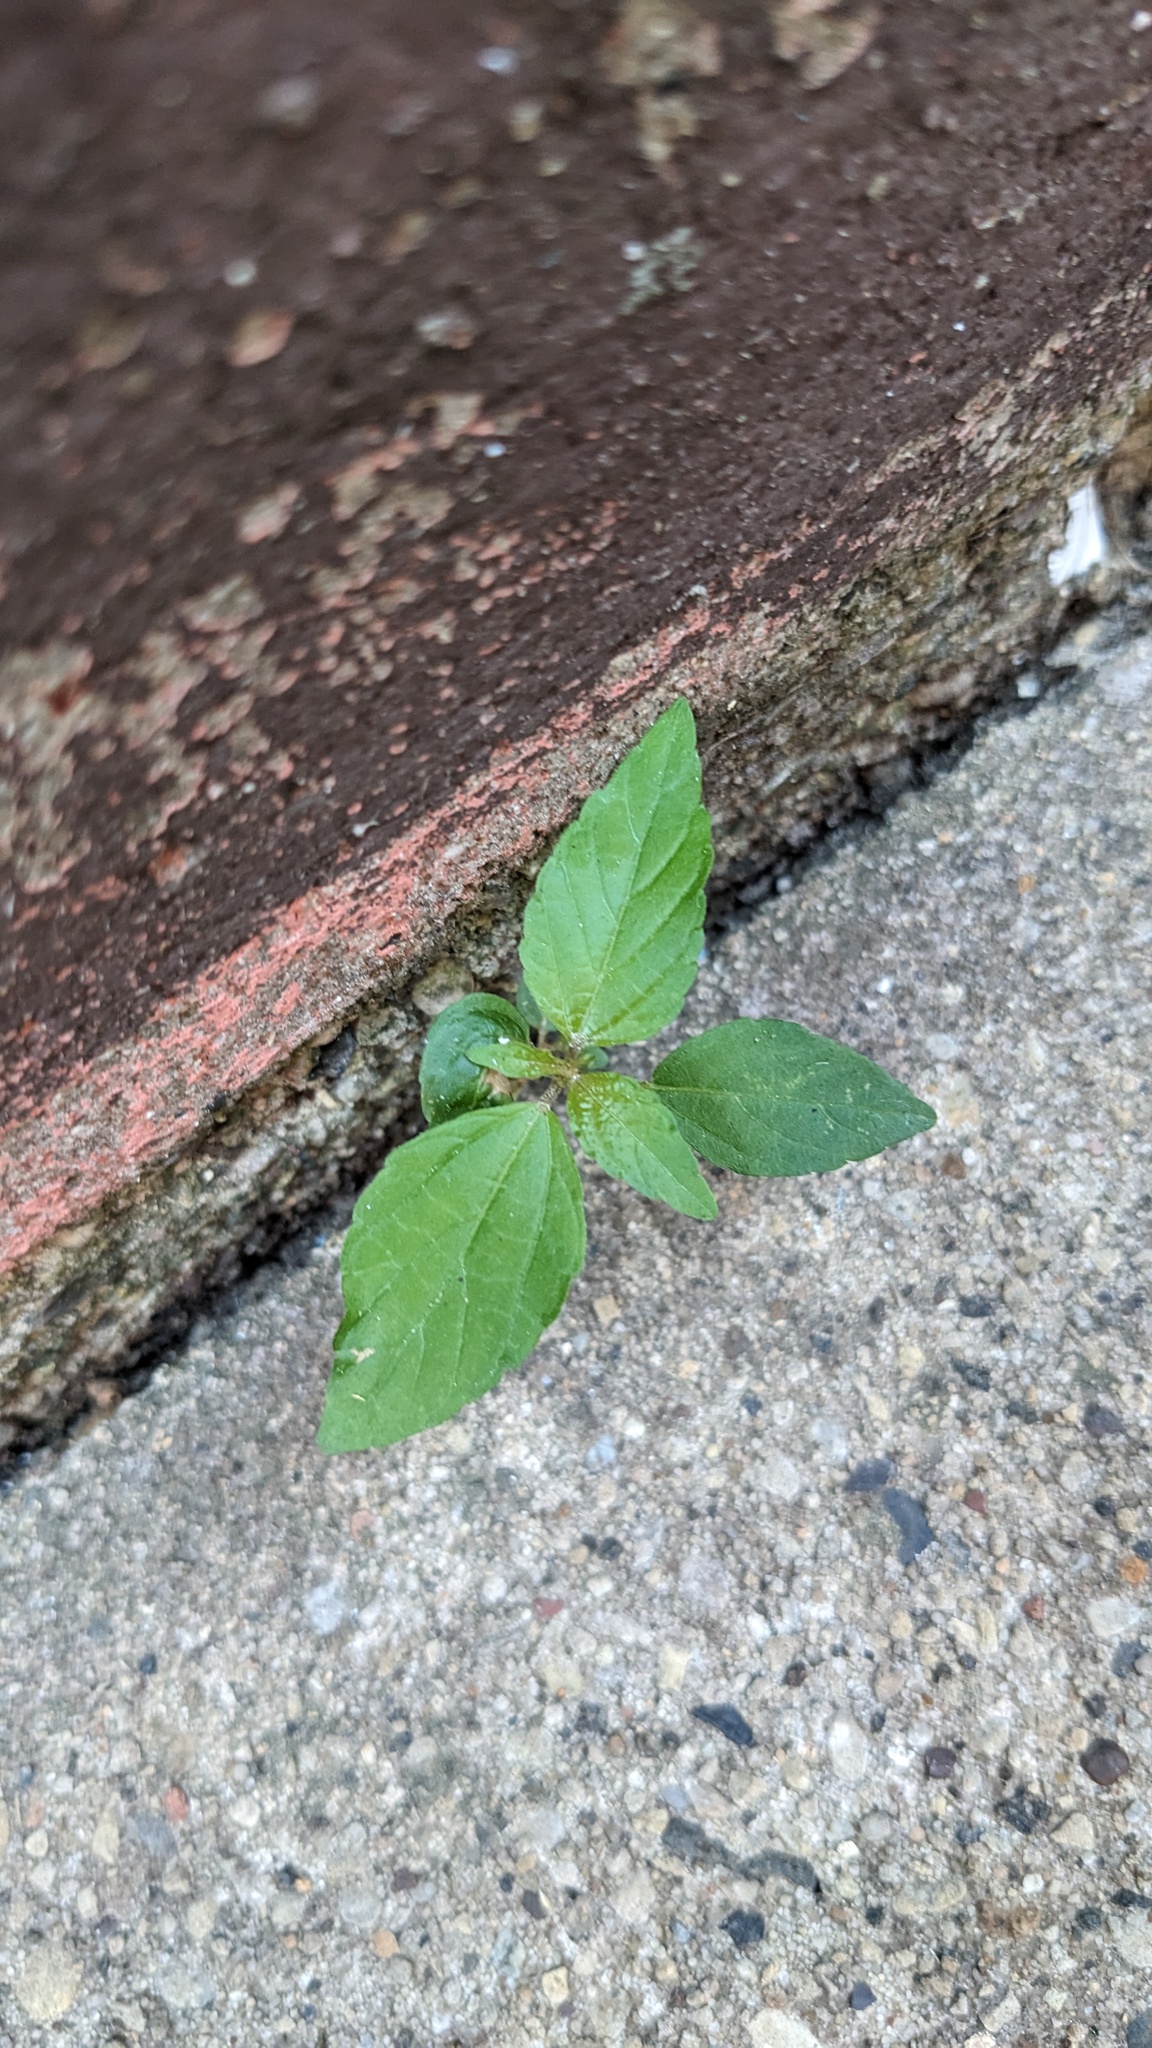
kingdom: Plantae
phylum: Tracheophyta
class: Magnoliopsida
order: Malpighiales
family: Euphorbiaceae
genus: Acalypha
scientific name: Acalypha rhomboidea
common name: Rhombic copperleaf
